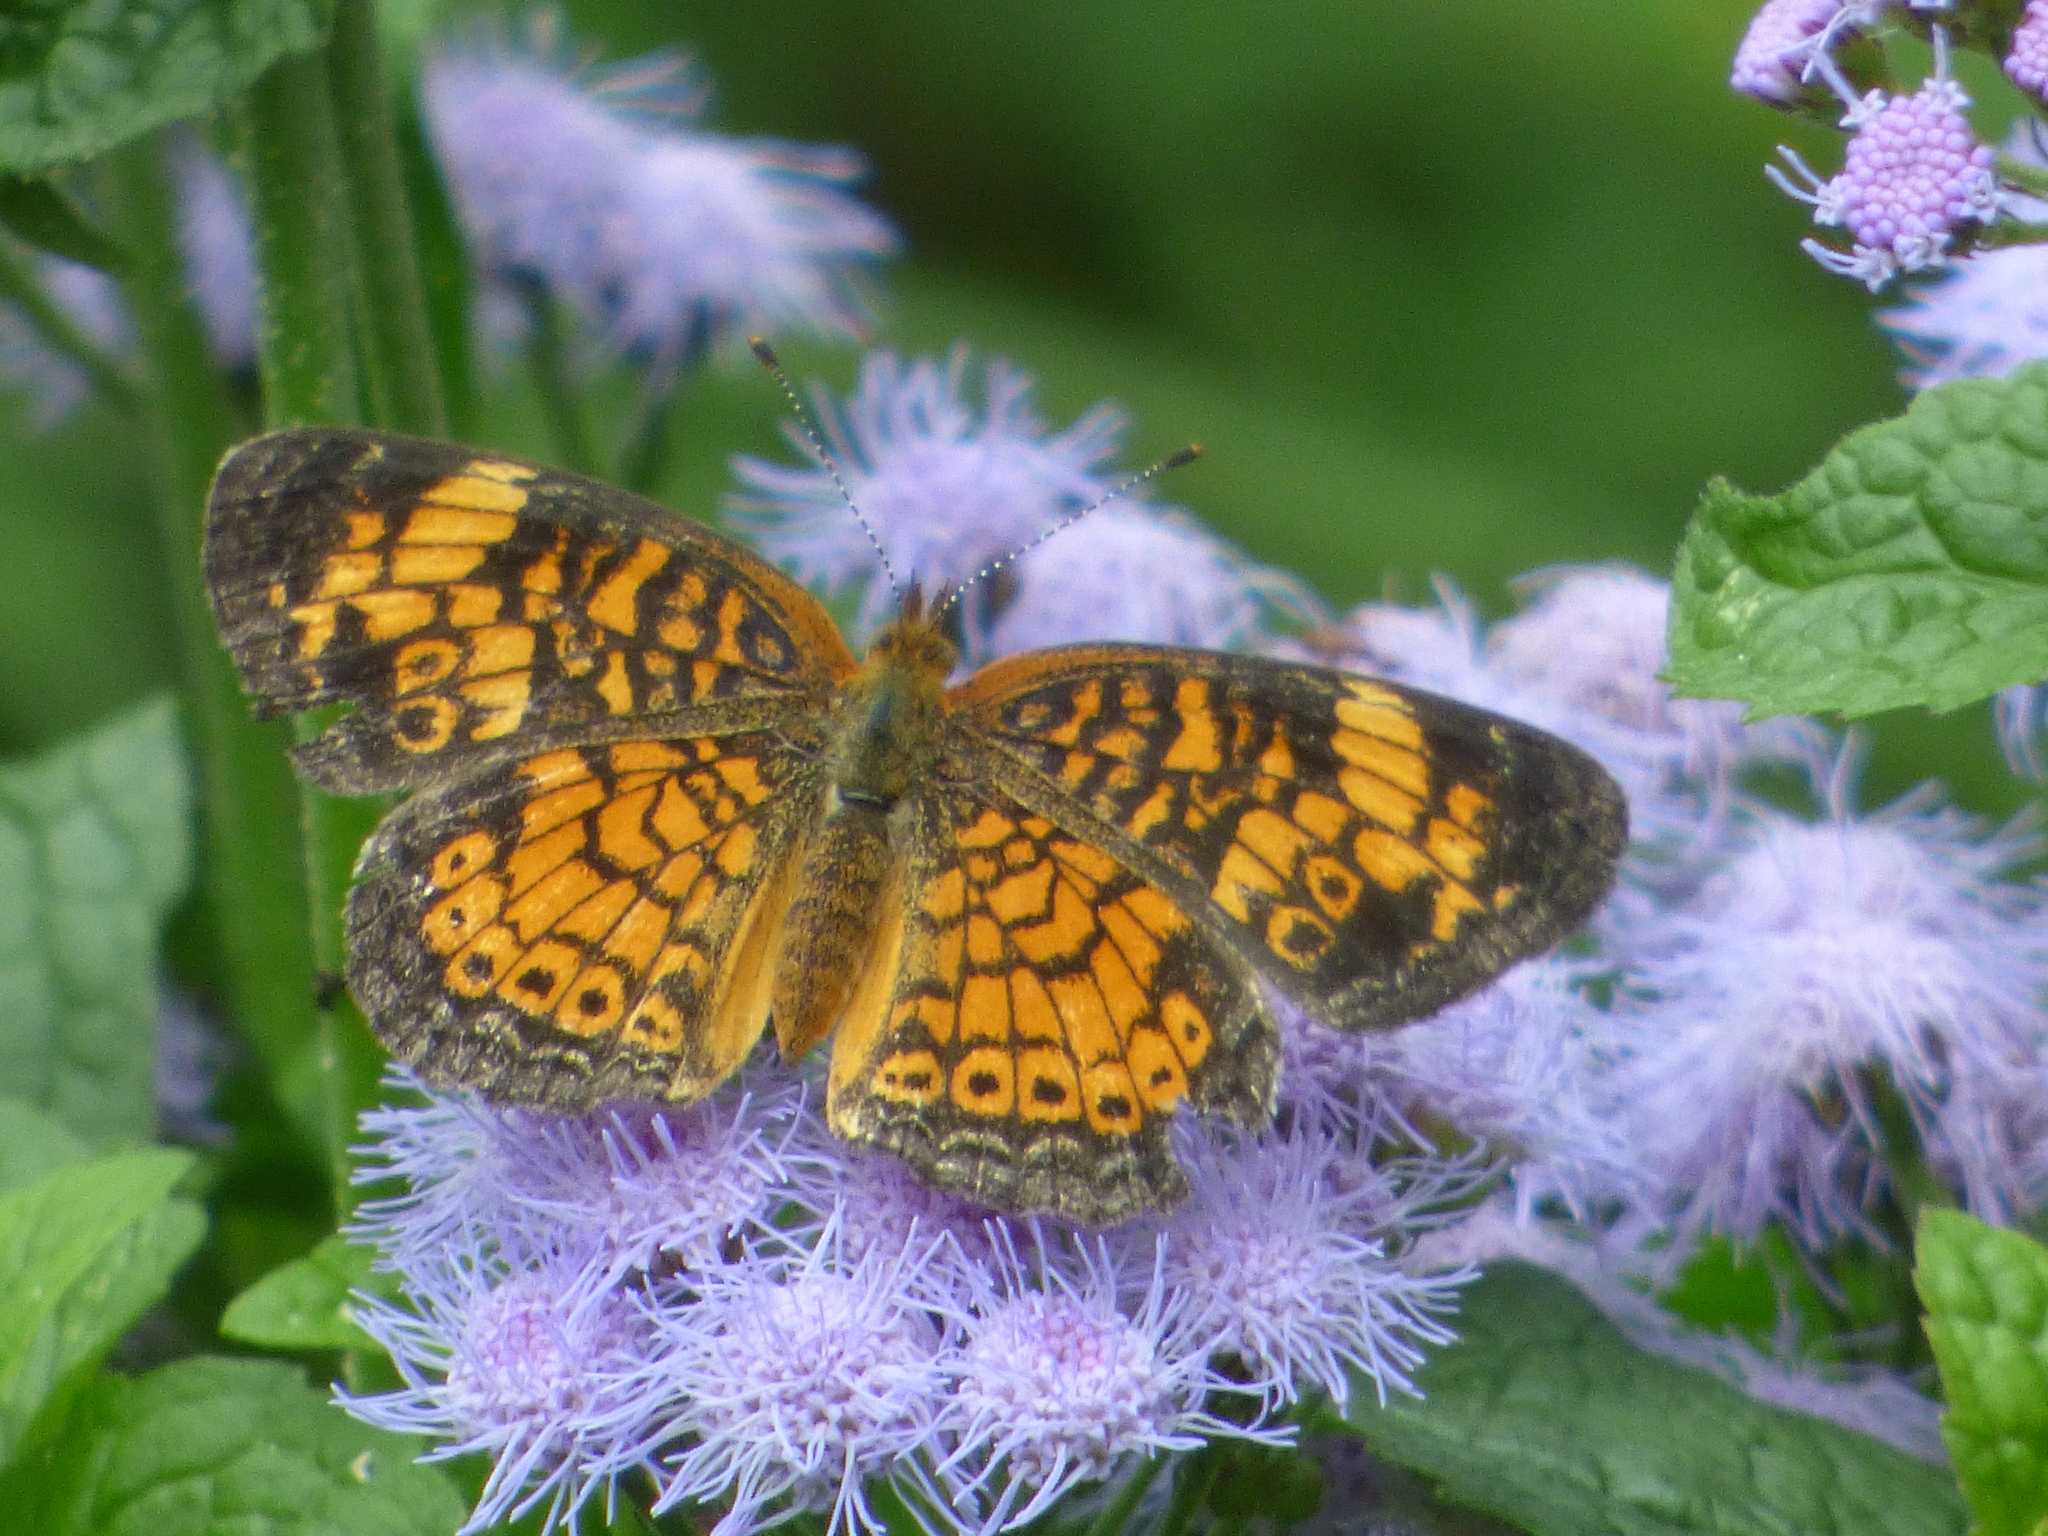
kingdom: Animalia
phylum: Arthropoda
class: Insecta
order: Lepidoptera
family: Nymphalidae
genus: Phyciodes
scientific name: Phyciodes tharos
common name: Pearl crescent
